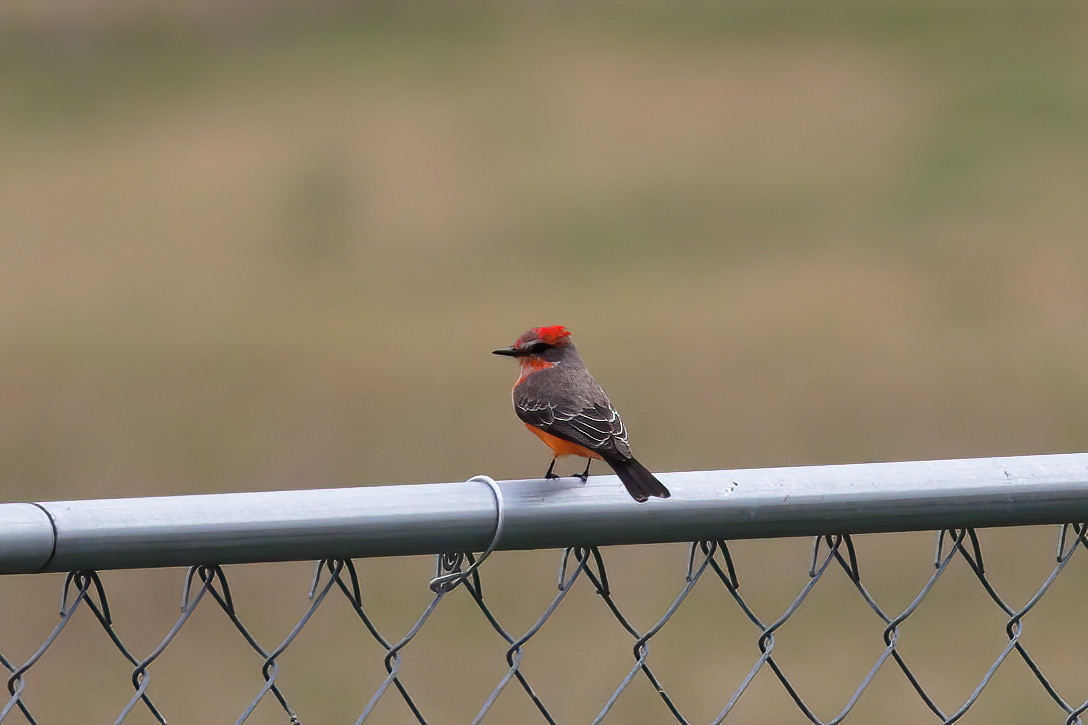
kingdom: Animalia
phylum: Chordata
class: Aves
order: Passeriformes
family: Tyrannidae
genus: Pyrocephalus
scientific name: Pyrocephalus rubinus
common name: Vermilion flycatcher
